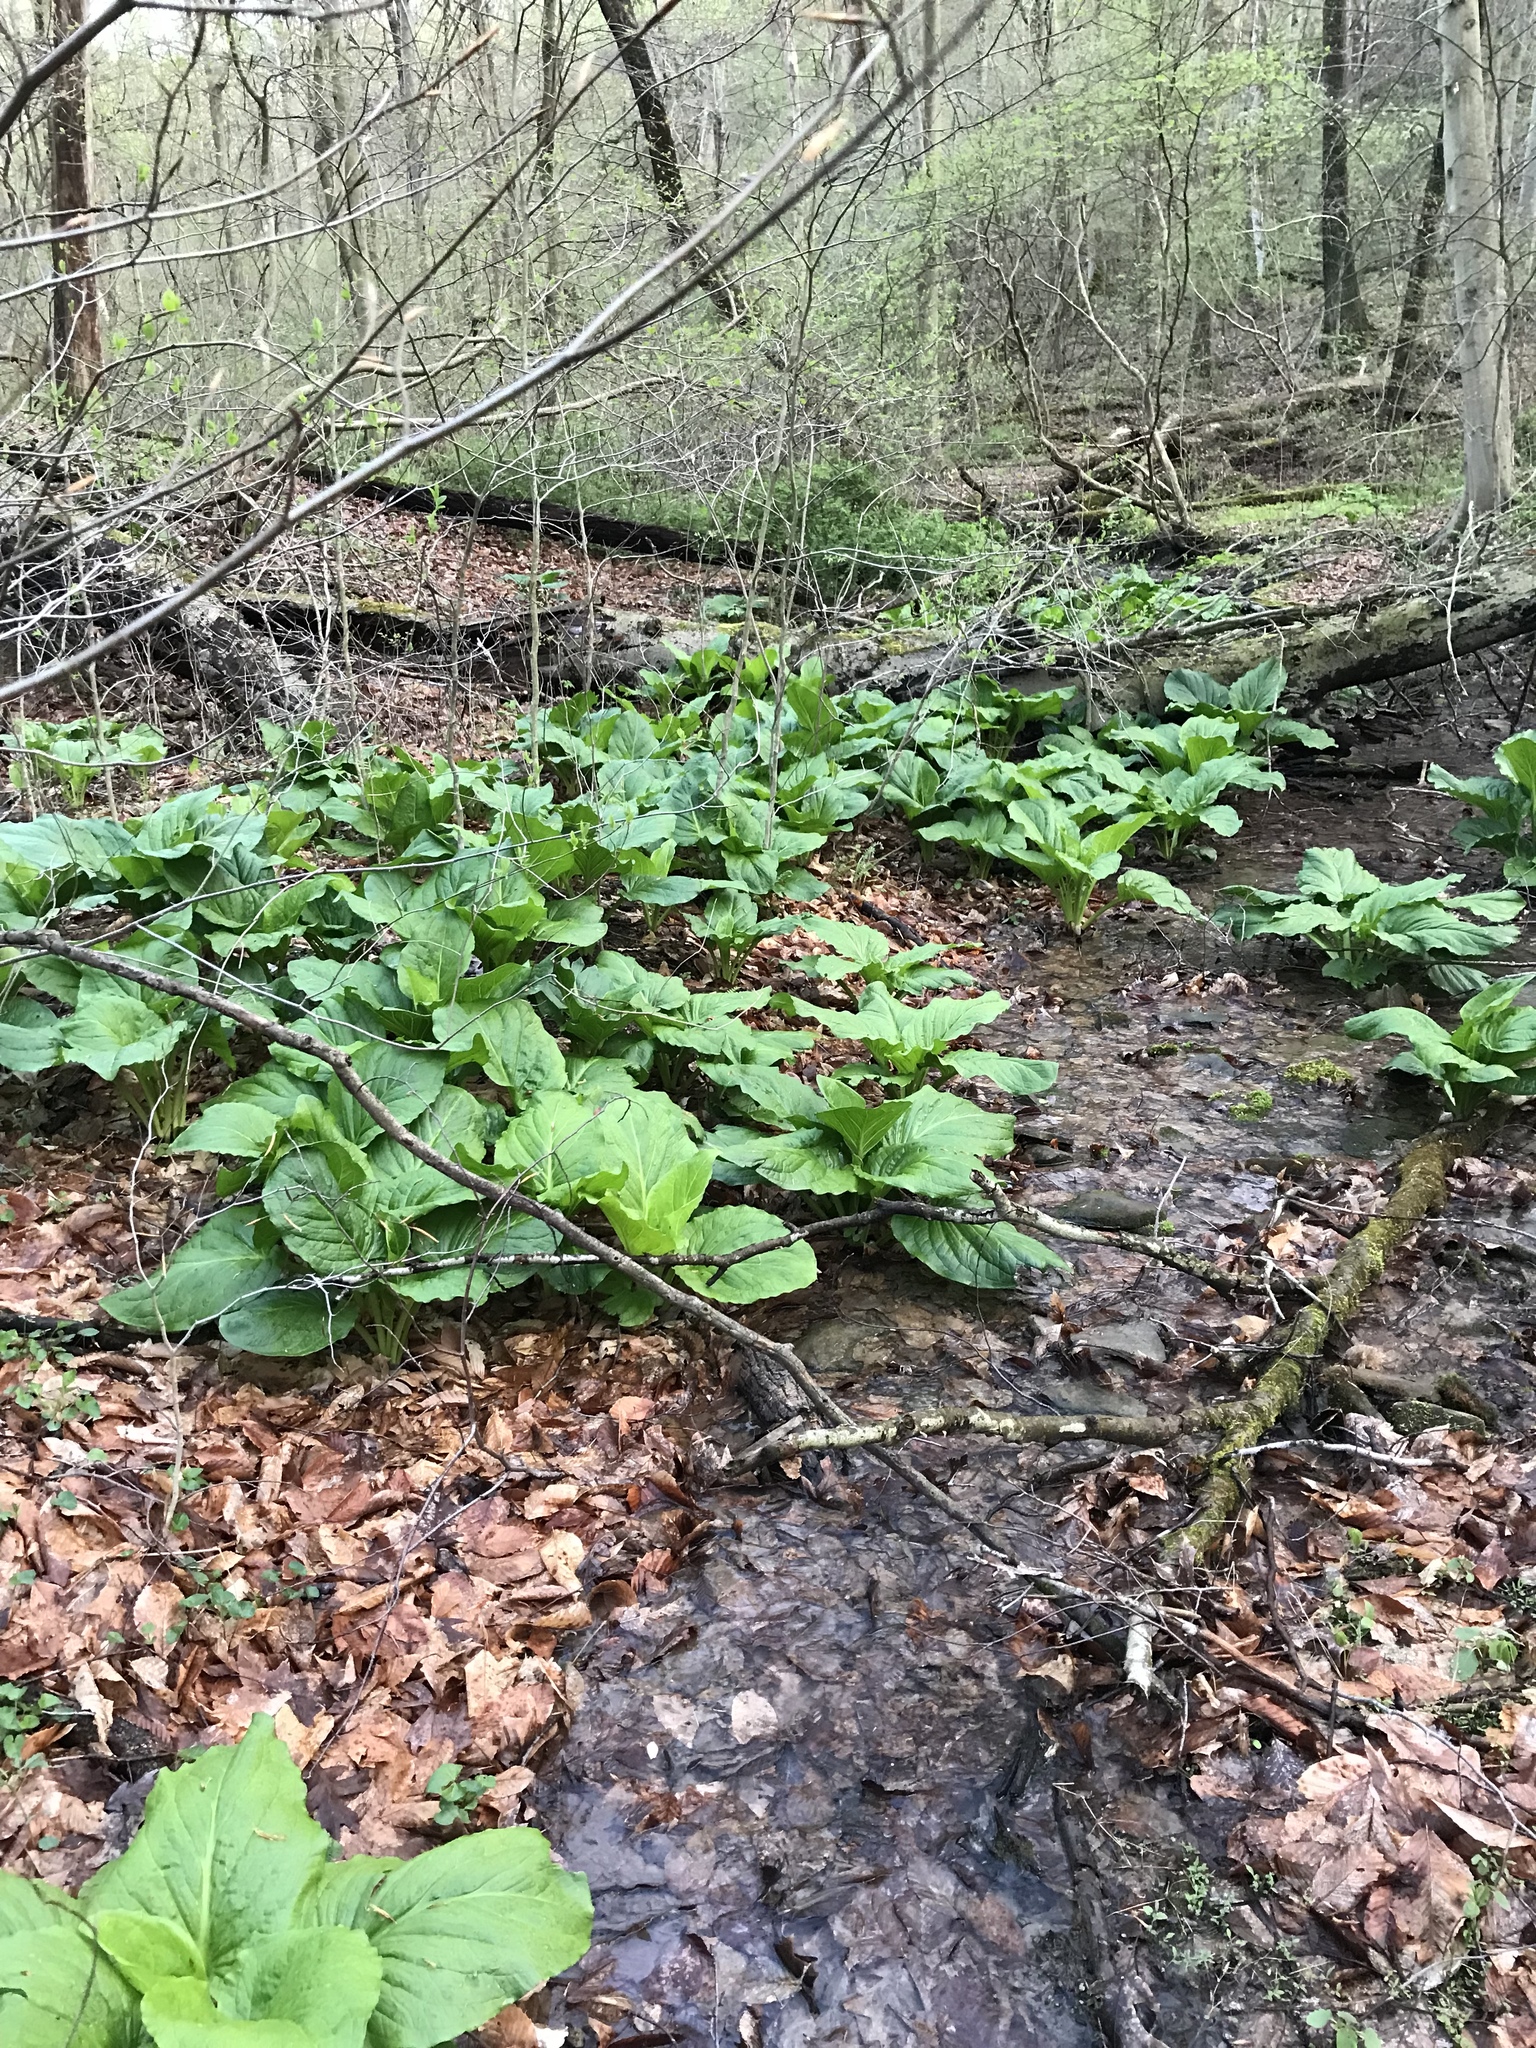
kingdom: Plantae
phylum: Tracheophyta
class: Liliopsida
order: Alismatales
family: Araceae
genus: Symplocarpus
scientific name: Symplocarpus foetidus
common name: Eastern skunk cabbage
